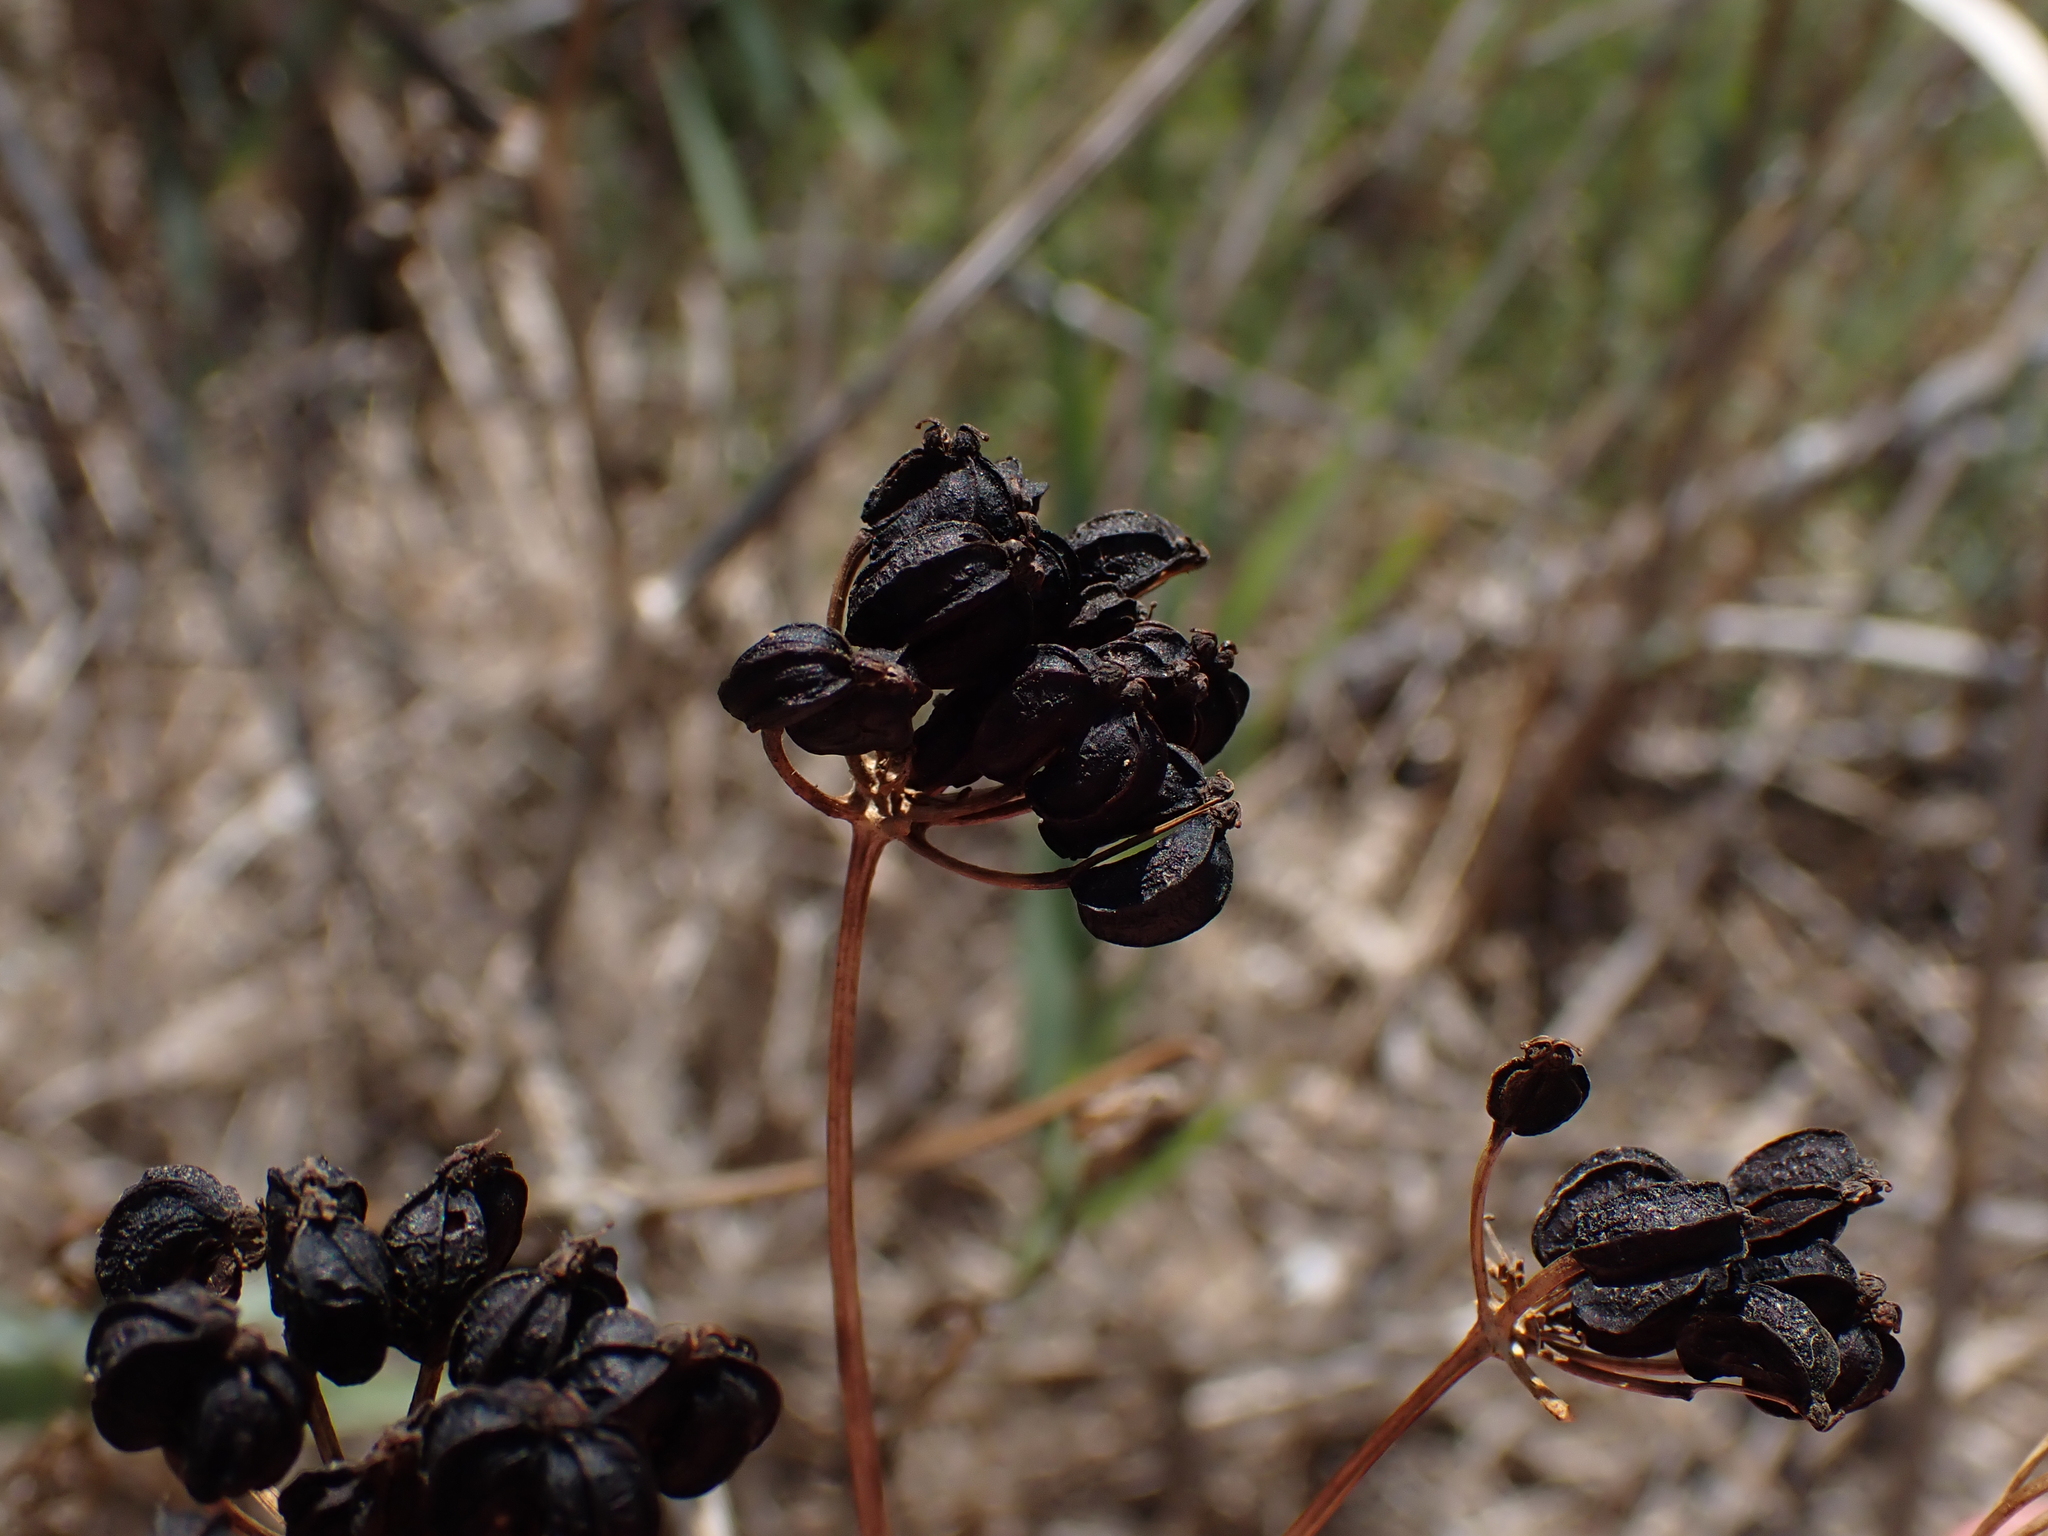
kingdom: Plantae
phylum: Tracheophyta
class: Magnoliopsida
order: Apiales
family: Apiaceae
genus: Smyrnium
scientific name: Smyrnium olusatrum
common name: Alexanders
